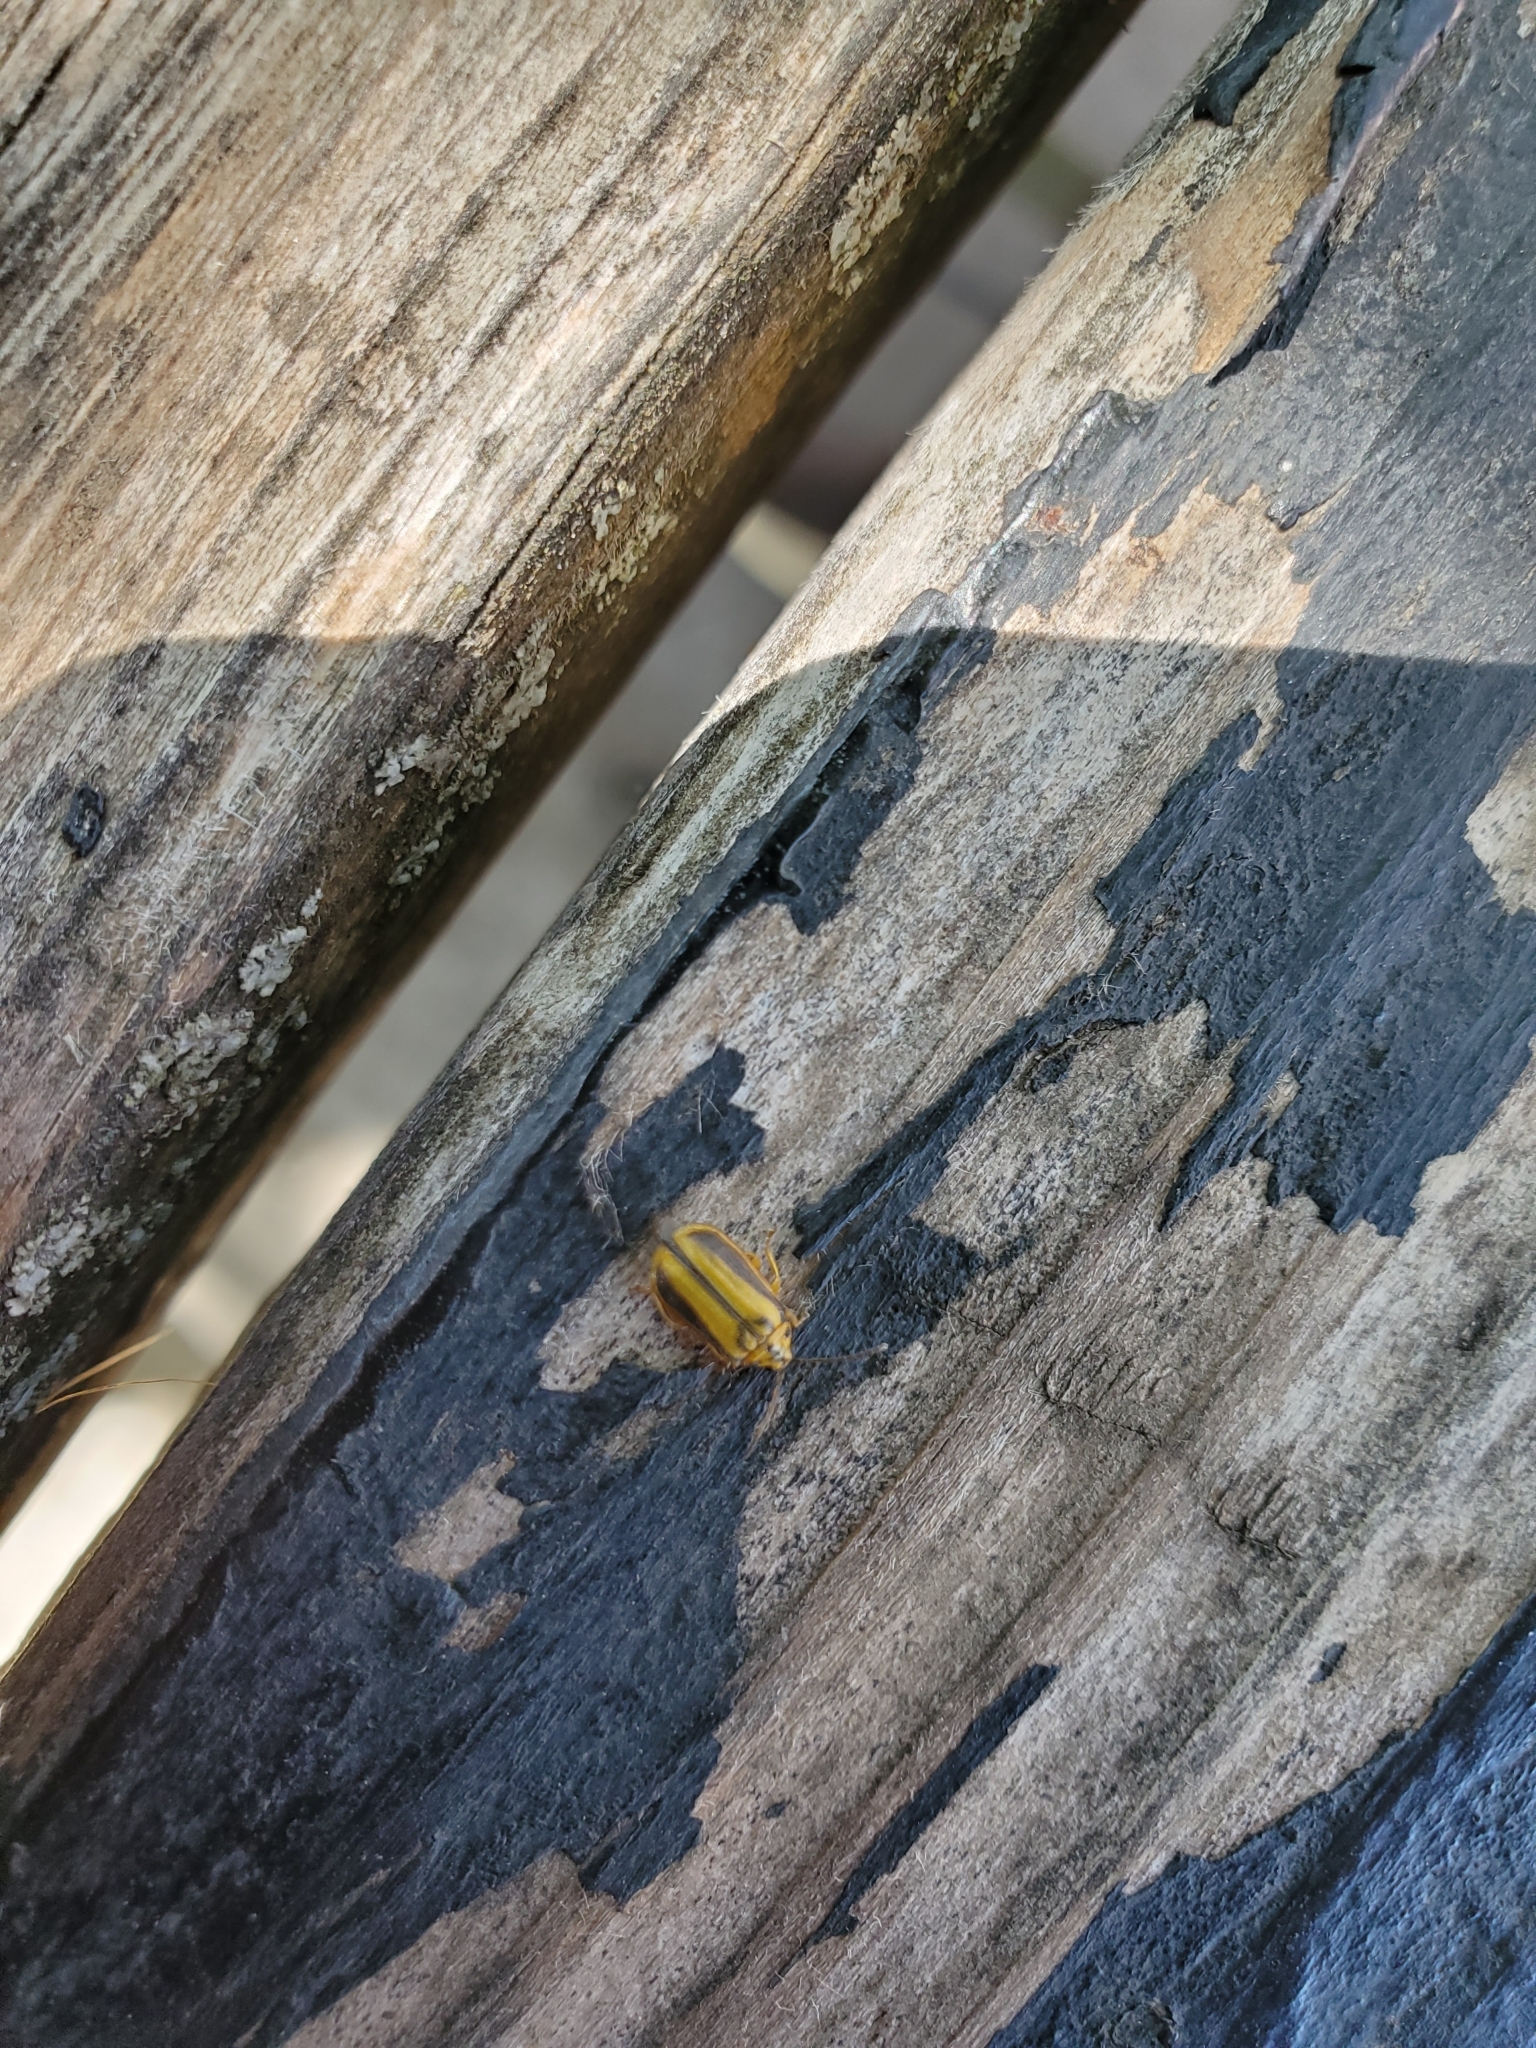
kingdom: Animalia
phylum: Arthropoda
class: Insecta
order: Coleoptera
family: Chrysomelidae
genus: Xanthogaleruca
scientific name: Xanthogaleruca luteola
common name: Elm leaf beetle
